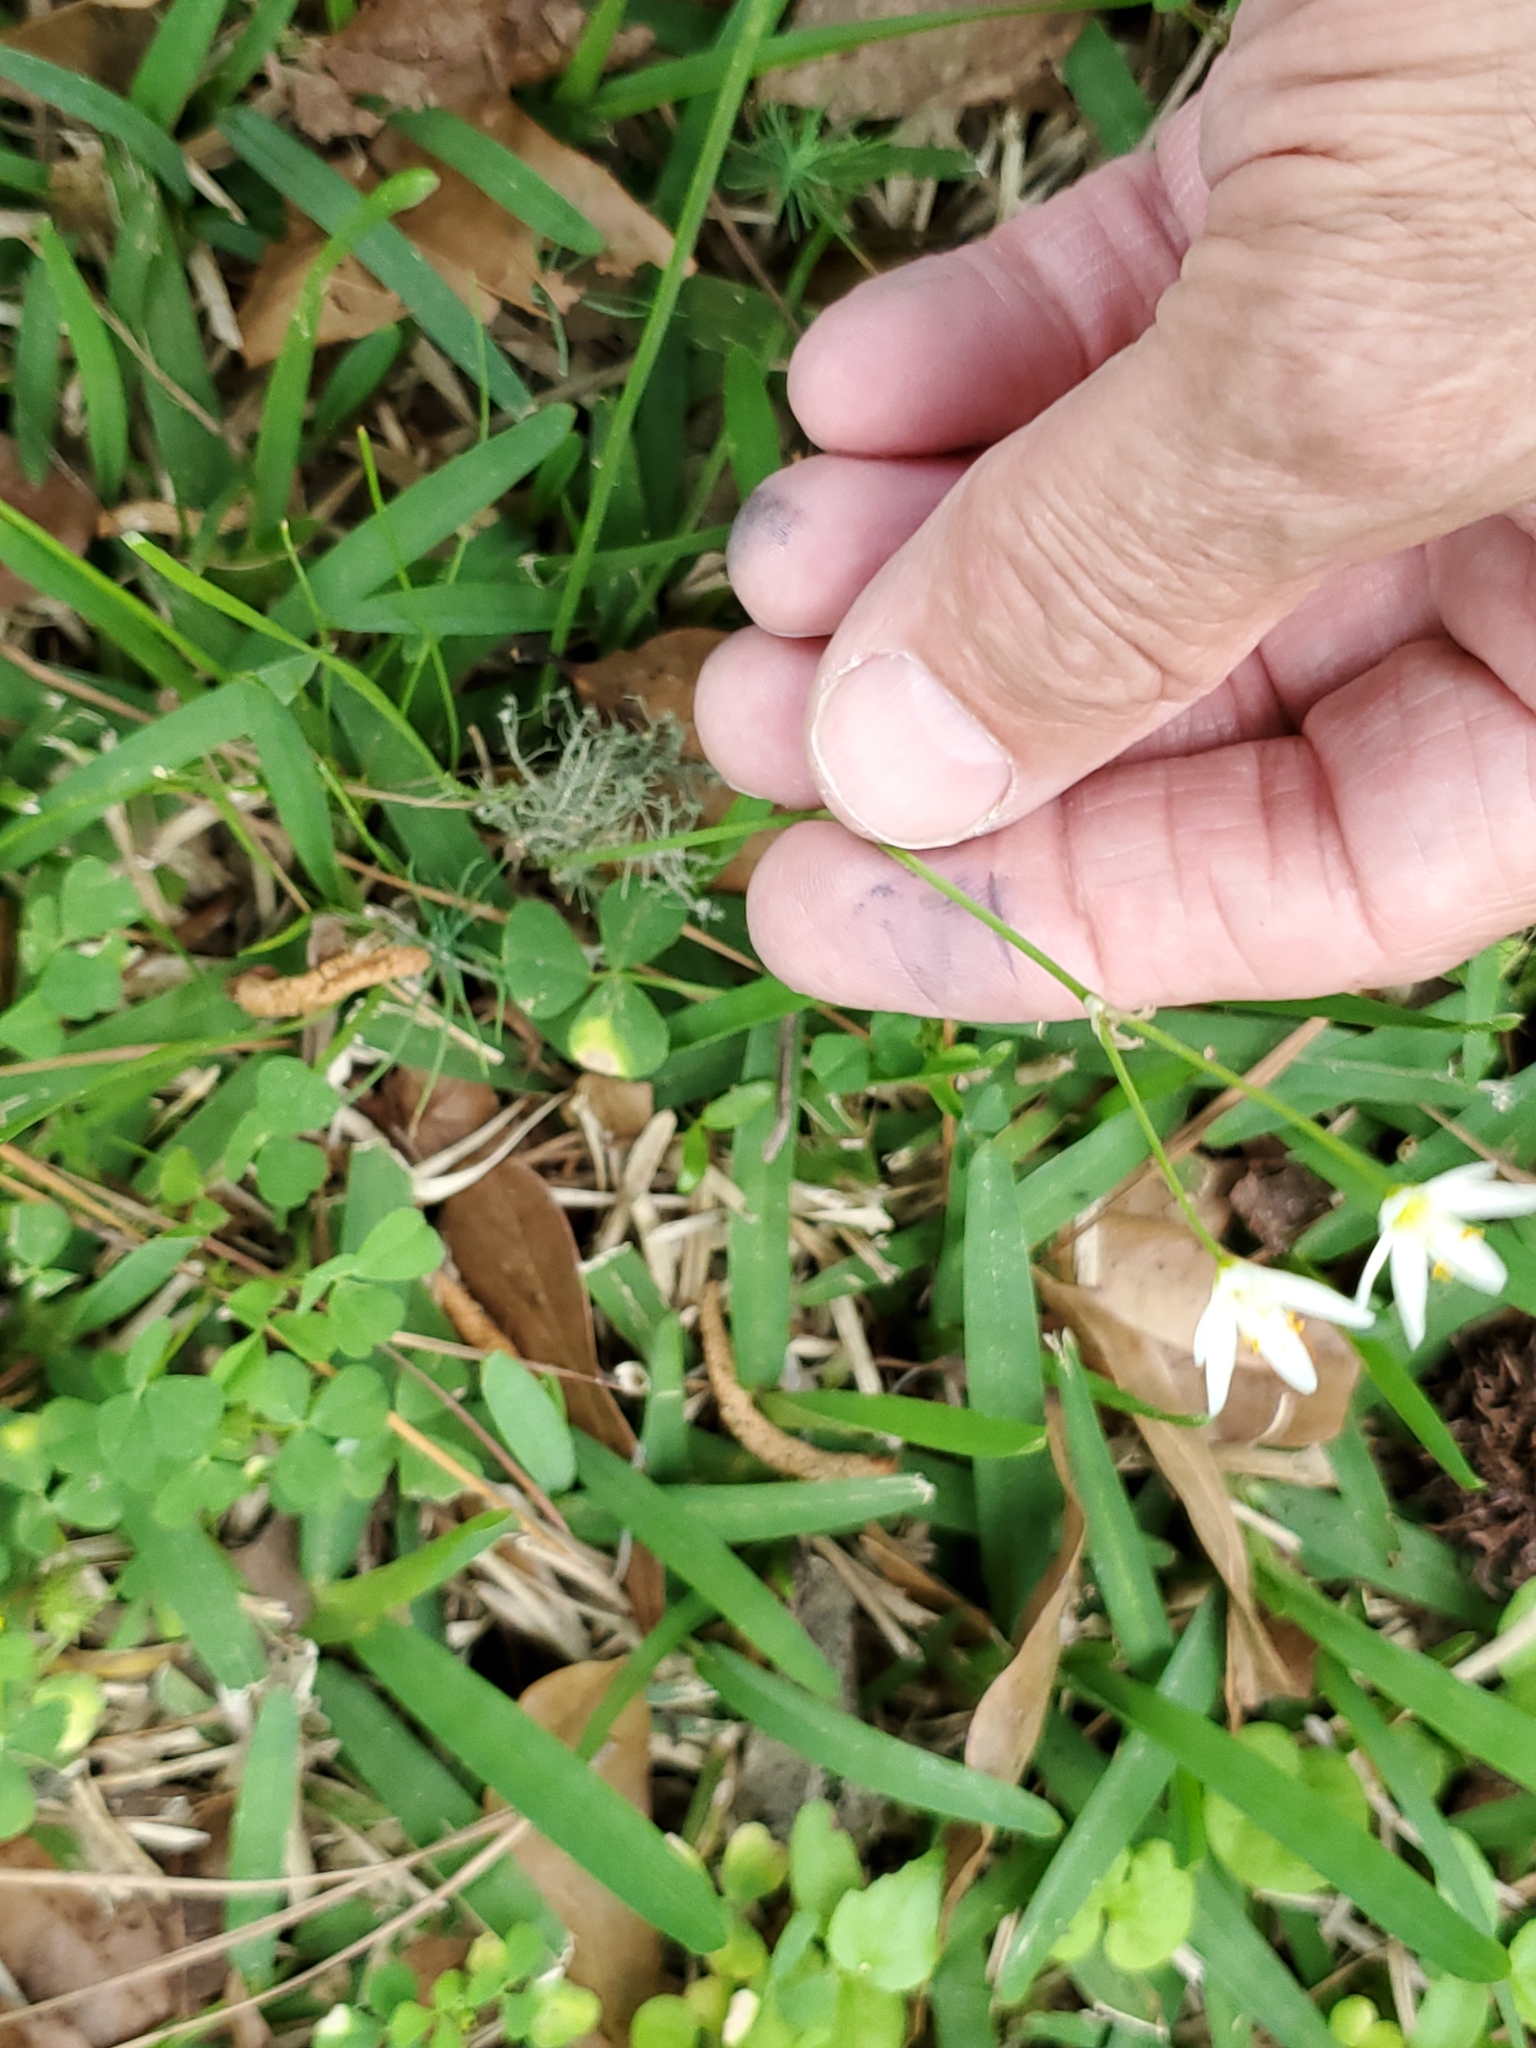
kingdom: Plantae
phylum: Tracheophyta
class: Liliopsida
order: Asparagales
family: Amaryllidaceae
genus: Nothoscordum
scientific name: Nothoscordum bivalve
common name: Crow-poison
